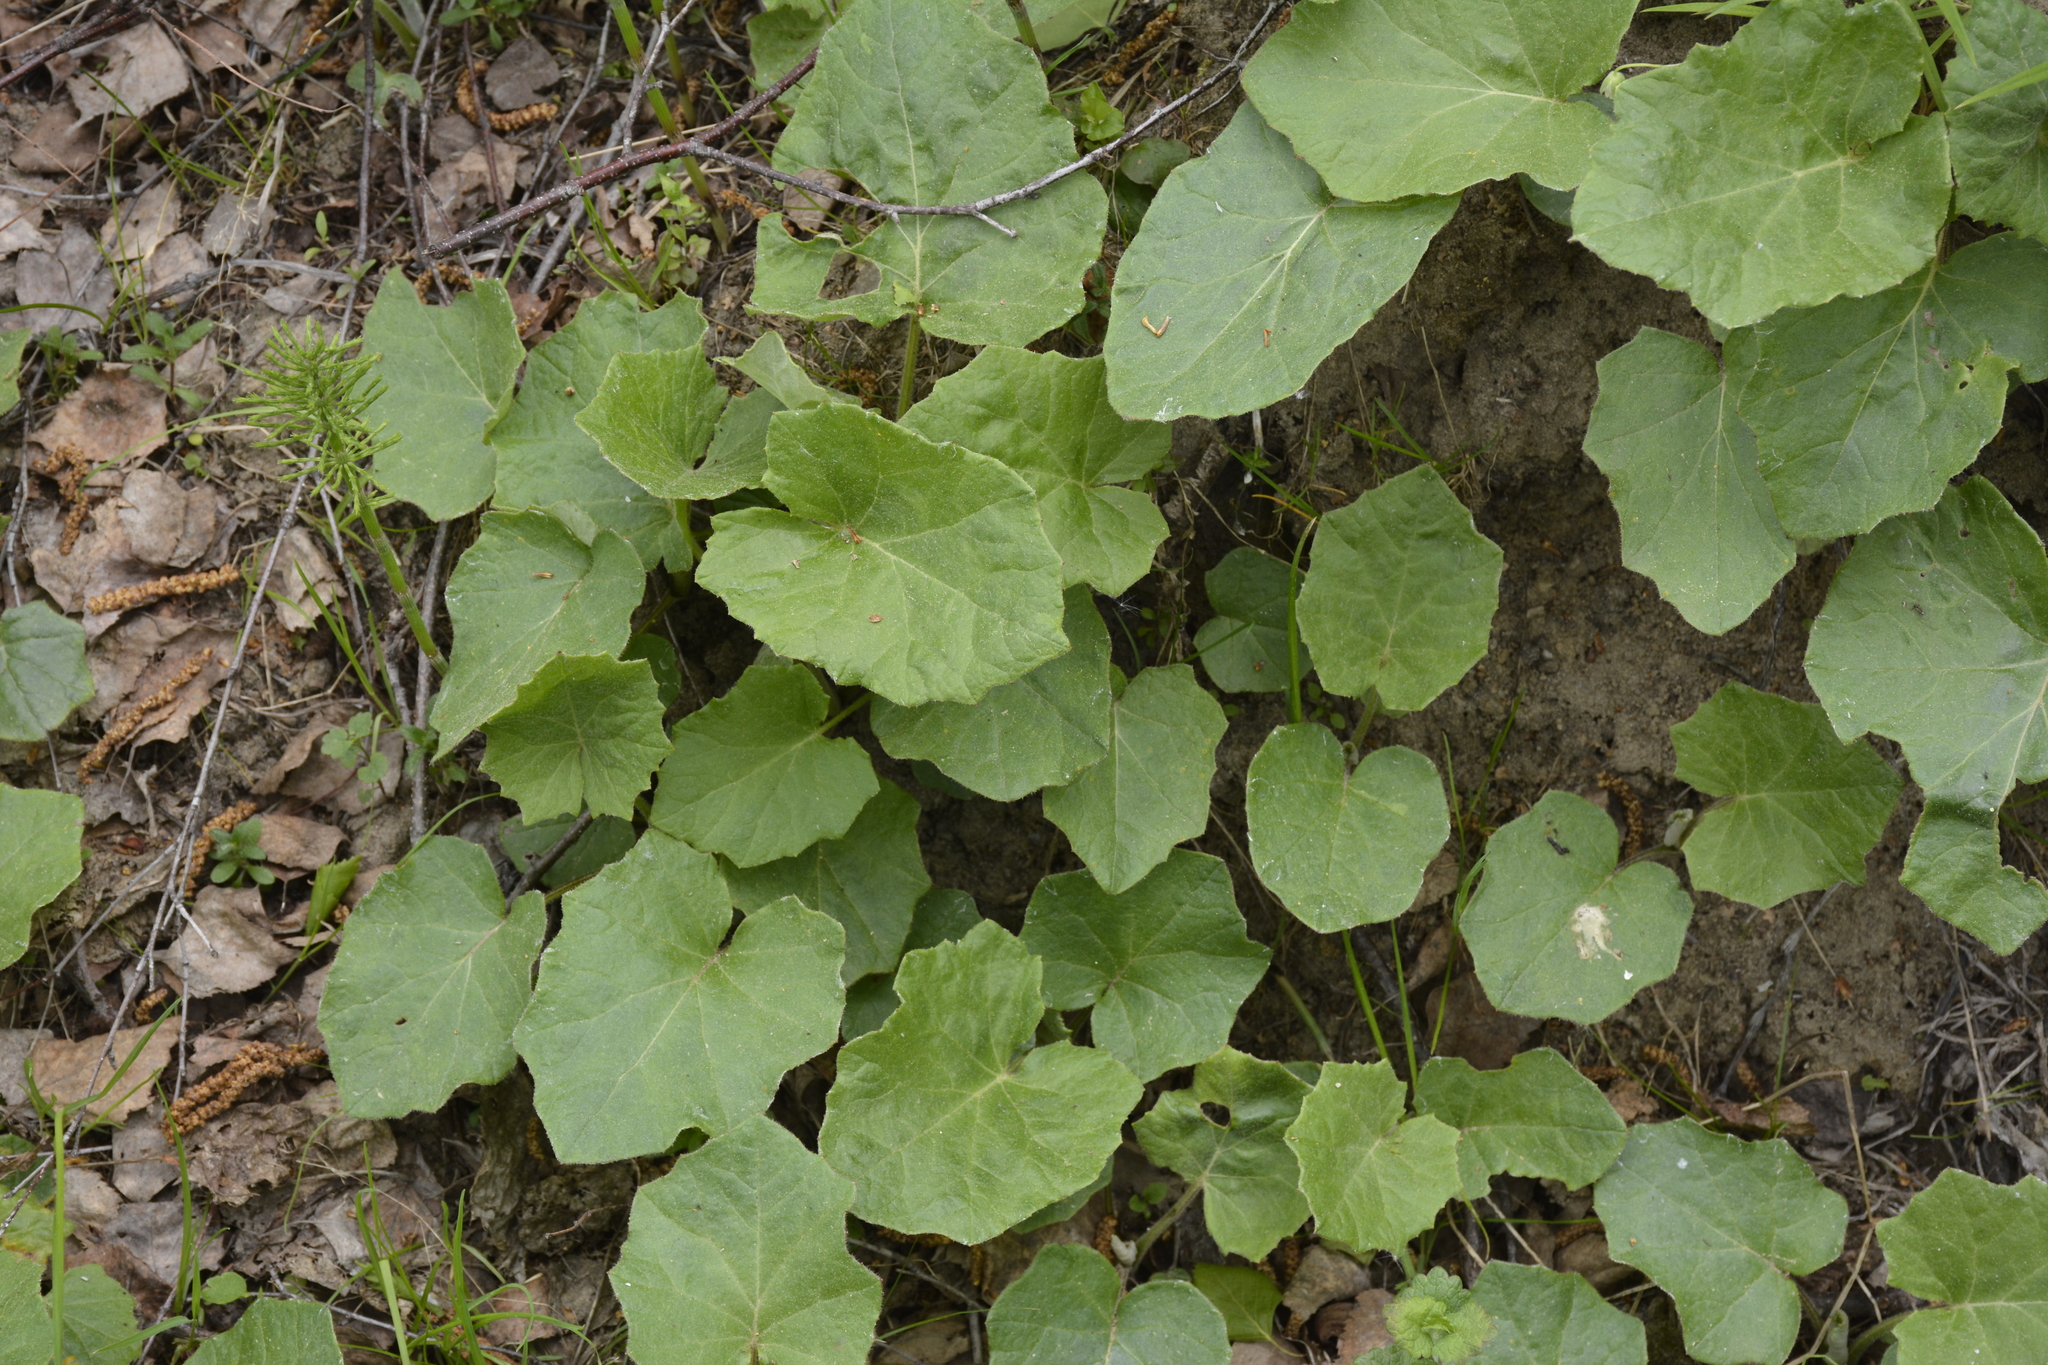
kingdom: Plantae
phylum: Tracheophyta
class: Magnoliopsida
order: Asterales
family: Asteraceae
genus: Tussilago
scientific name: Tussilago farfara
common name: Coltsfoot
